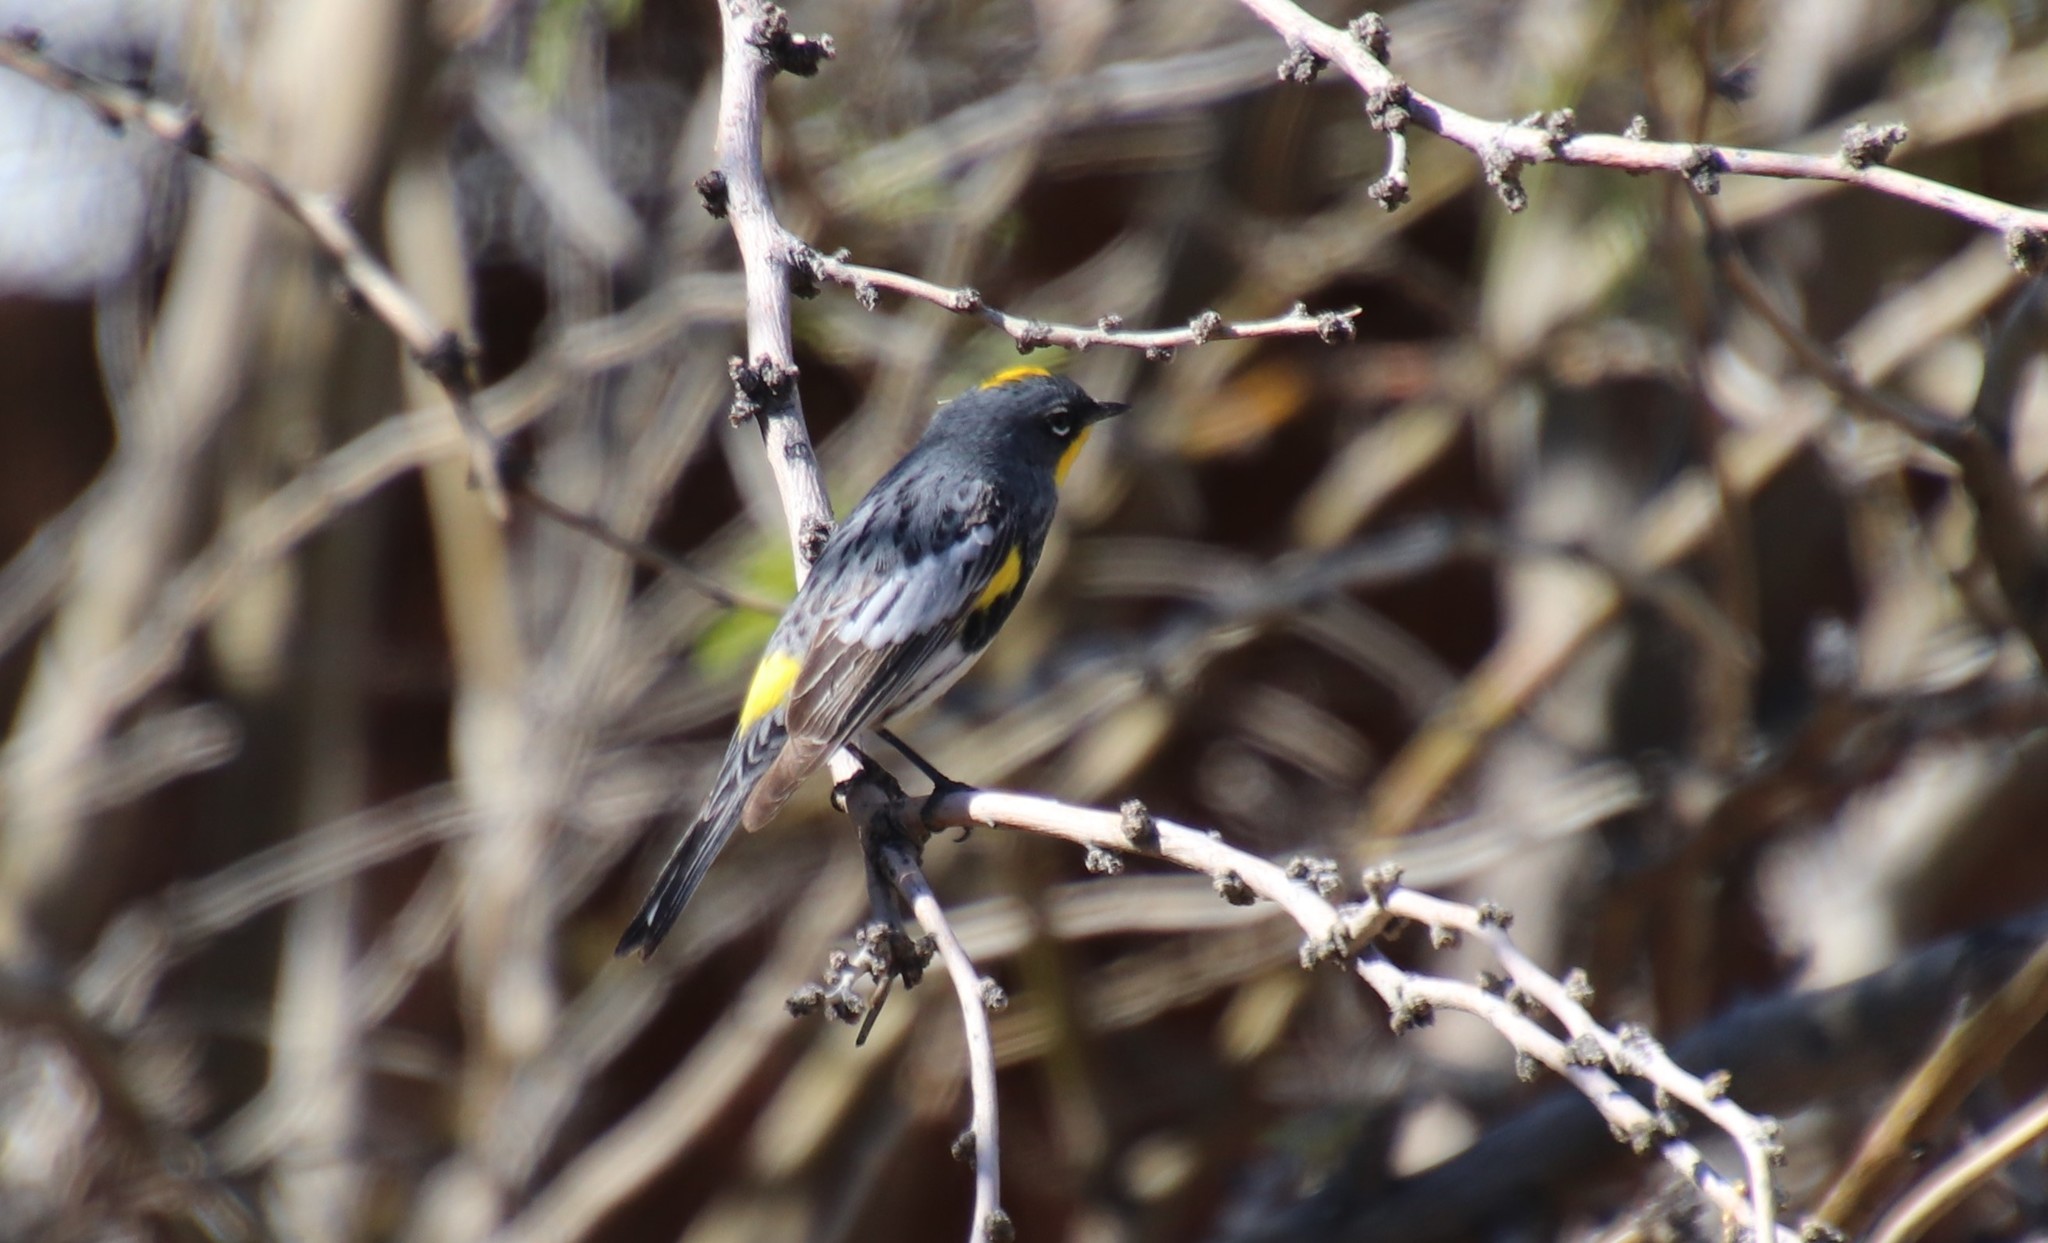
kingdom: Animalia
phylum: Chordata
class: Aves
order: Passeriformes
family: Parulidae
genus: Setophaga
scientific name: Setophaga auduboni
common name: Audubon's warbler
